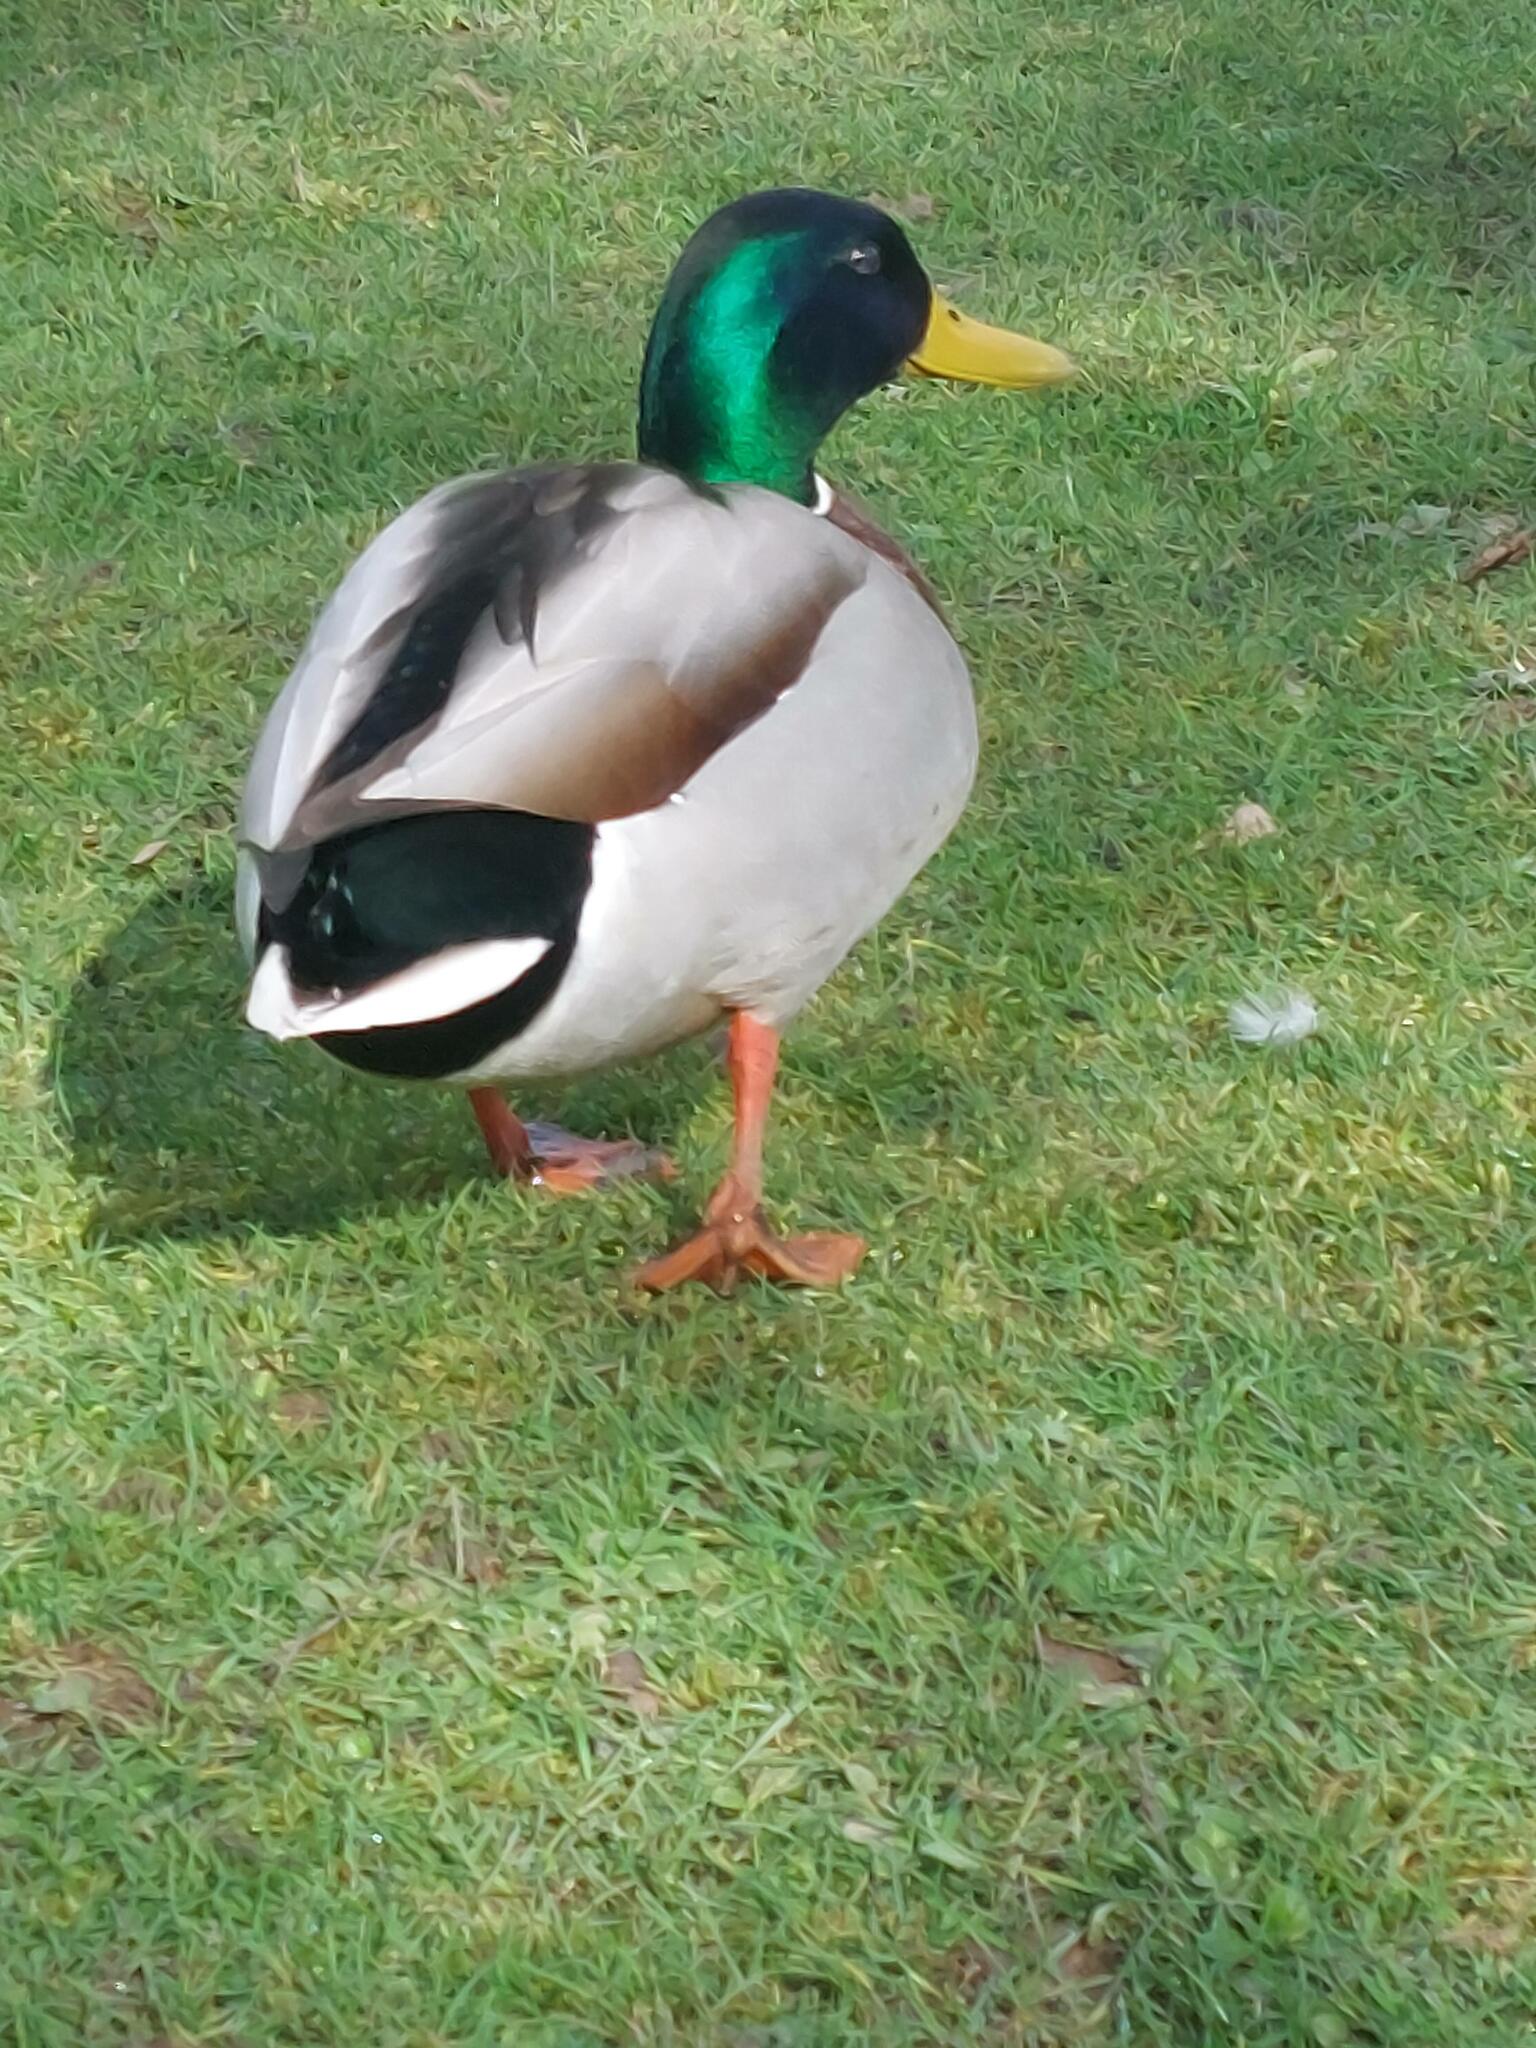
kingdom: Animalia
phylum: Chordata
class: Aves
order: Anseriformes
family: Anatidae
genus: Anas
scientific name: Anas platyrhynchos
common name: Mallard
